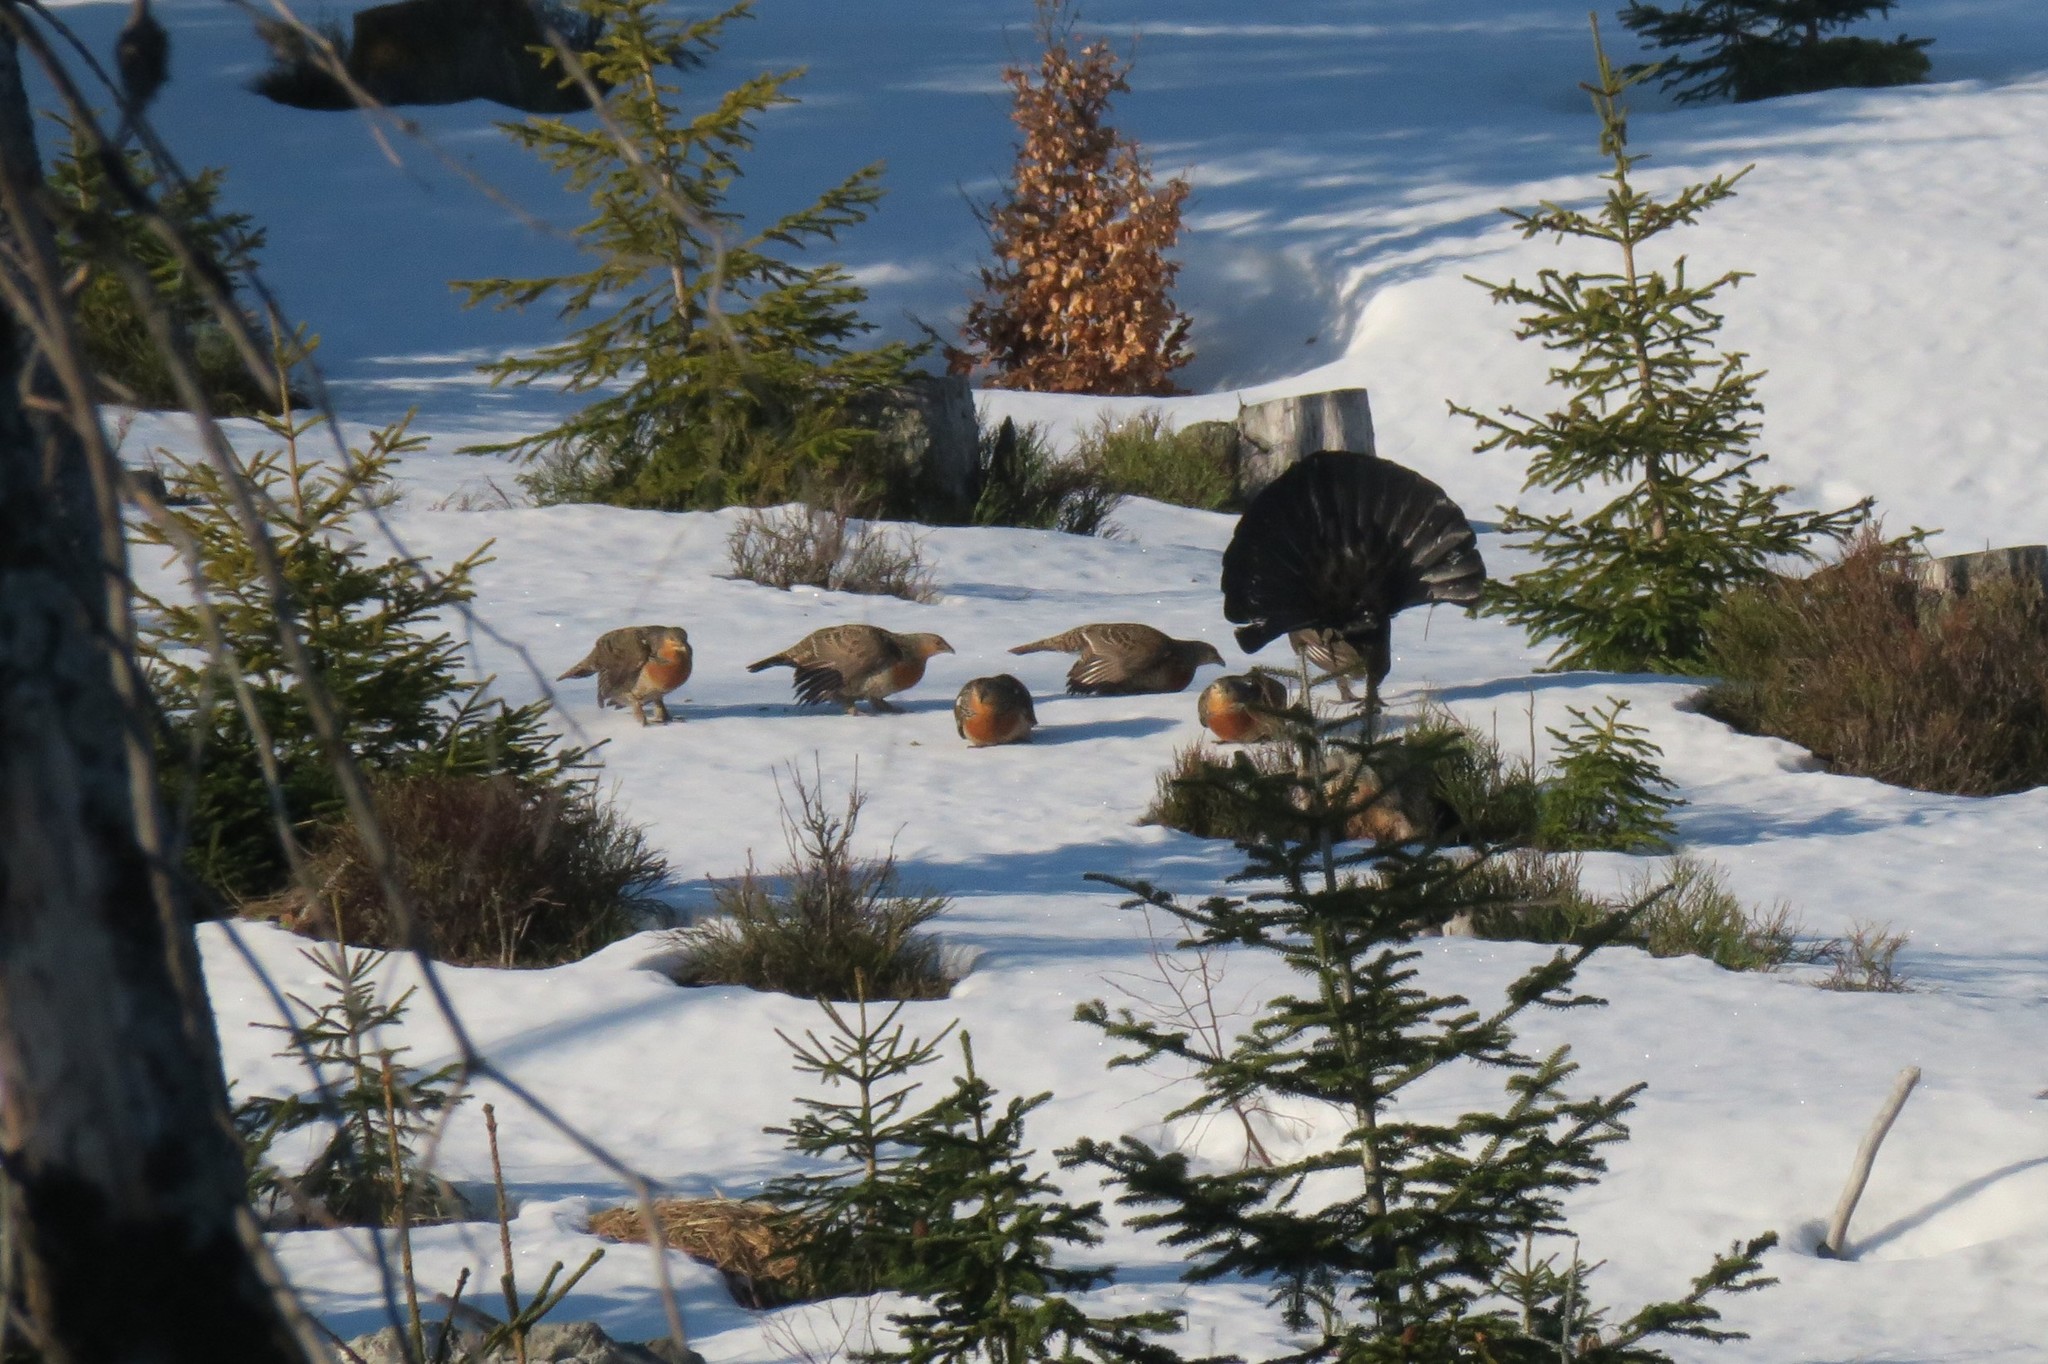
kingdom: Animalia
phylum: Chordata
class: Aves
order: Galliformes
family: Phasianidae
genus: Tetrao
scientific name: Tetrao urogallus
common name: Western capercaillie
